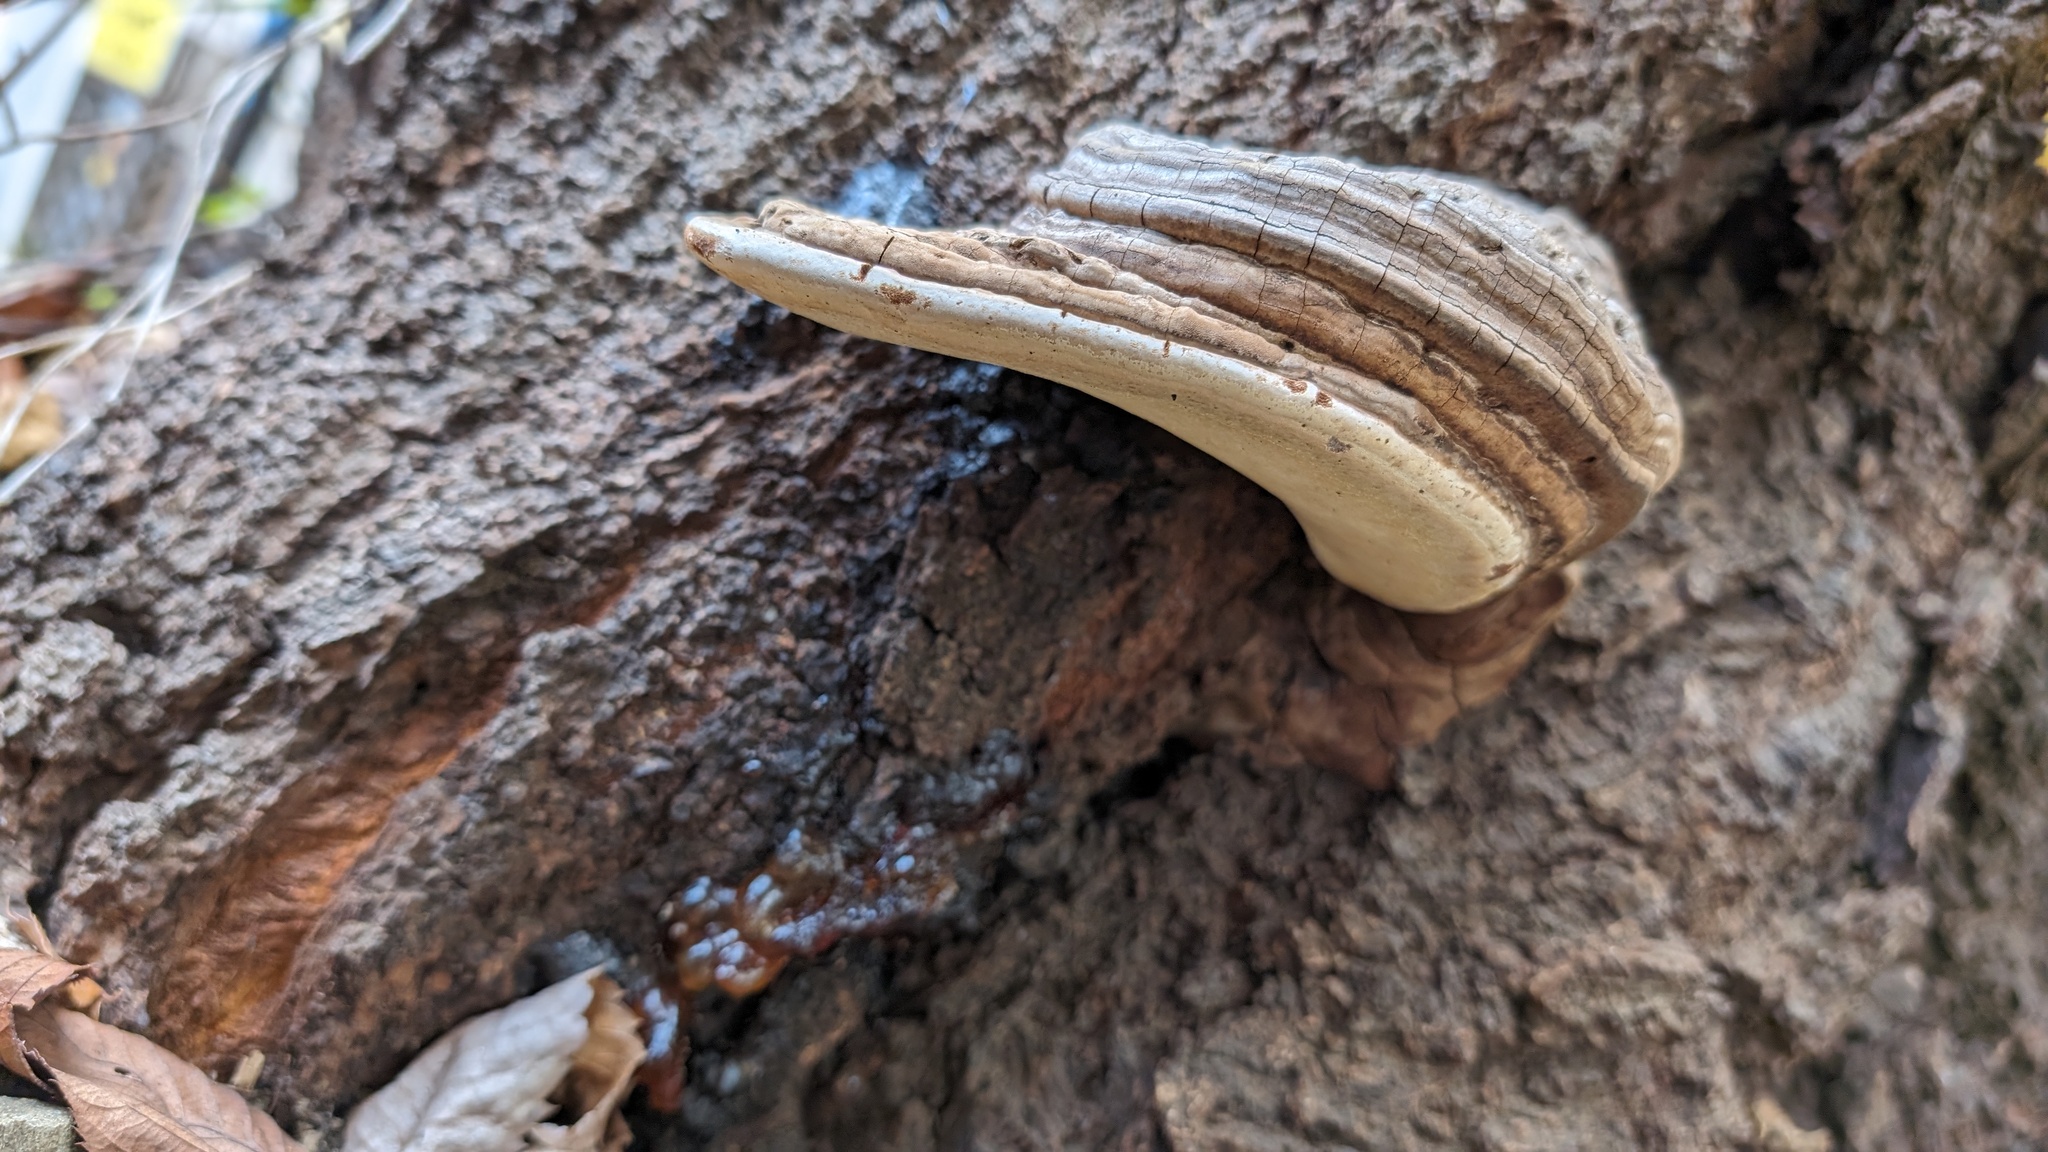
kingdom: Fungi
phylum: Basidiomycota
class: Agaricomycetes
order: Polyporales
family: Polyporaceae
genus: Ganoderma
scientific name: Ganoderma applanatum
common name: Artist's bracket
